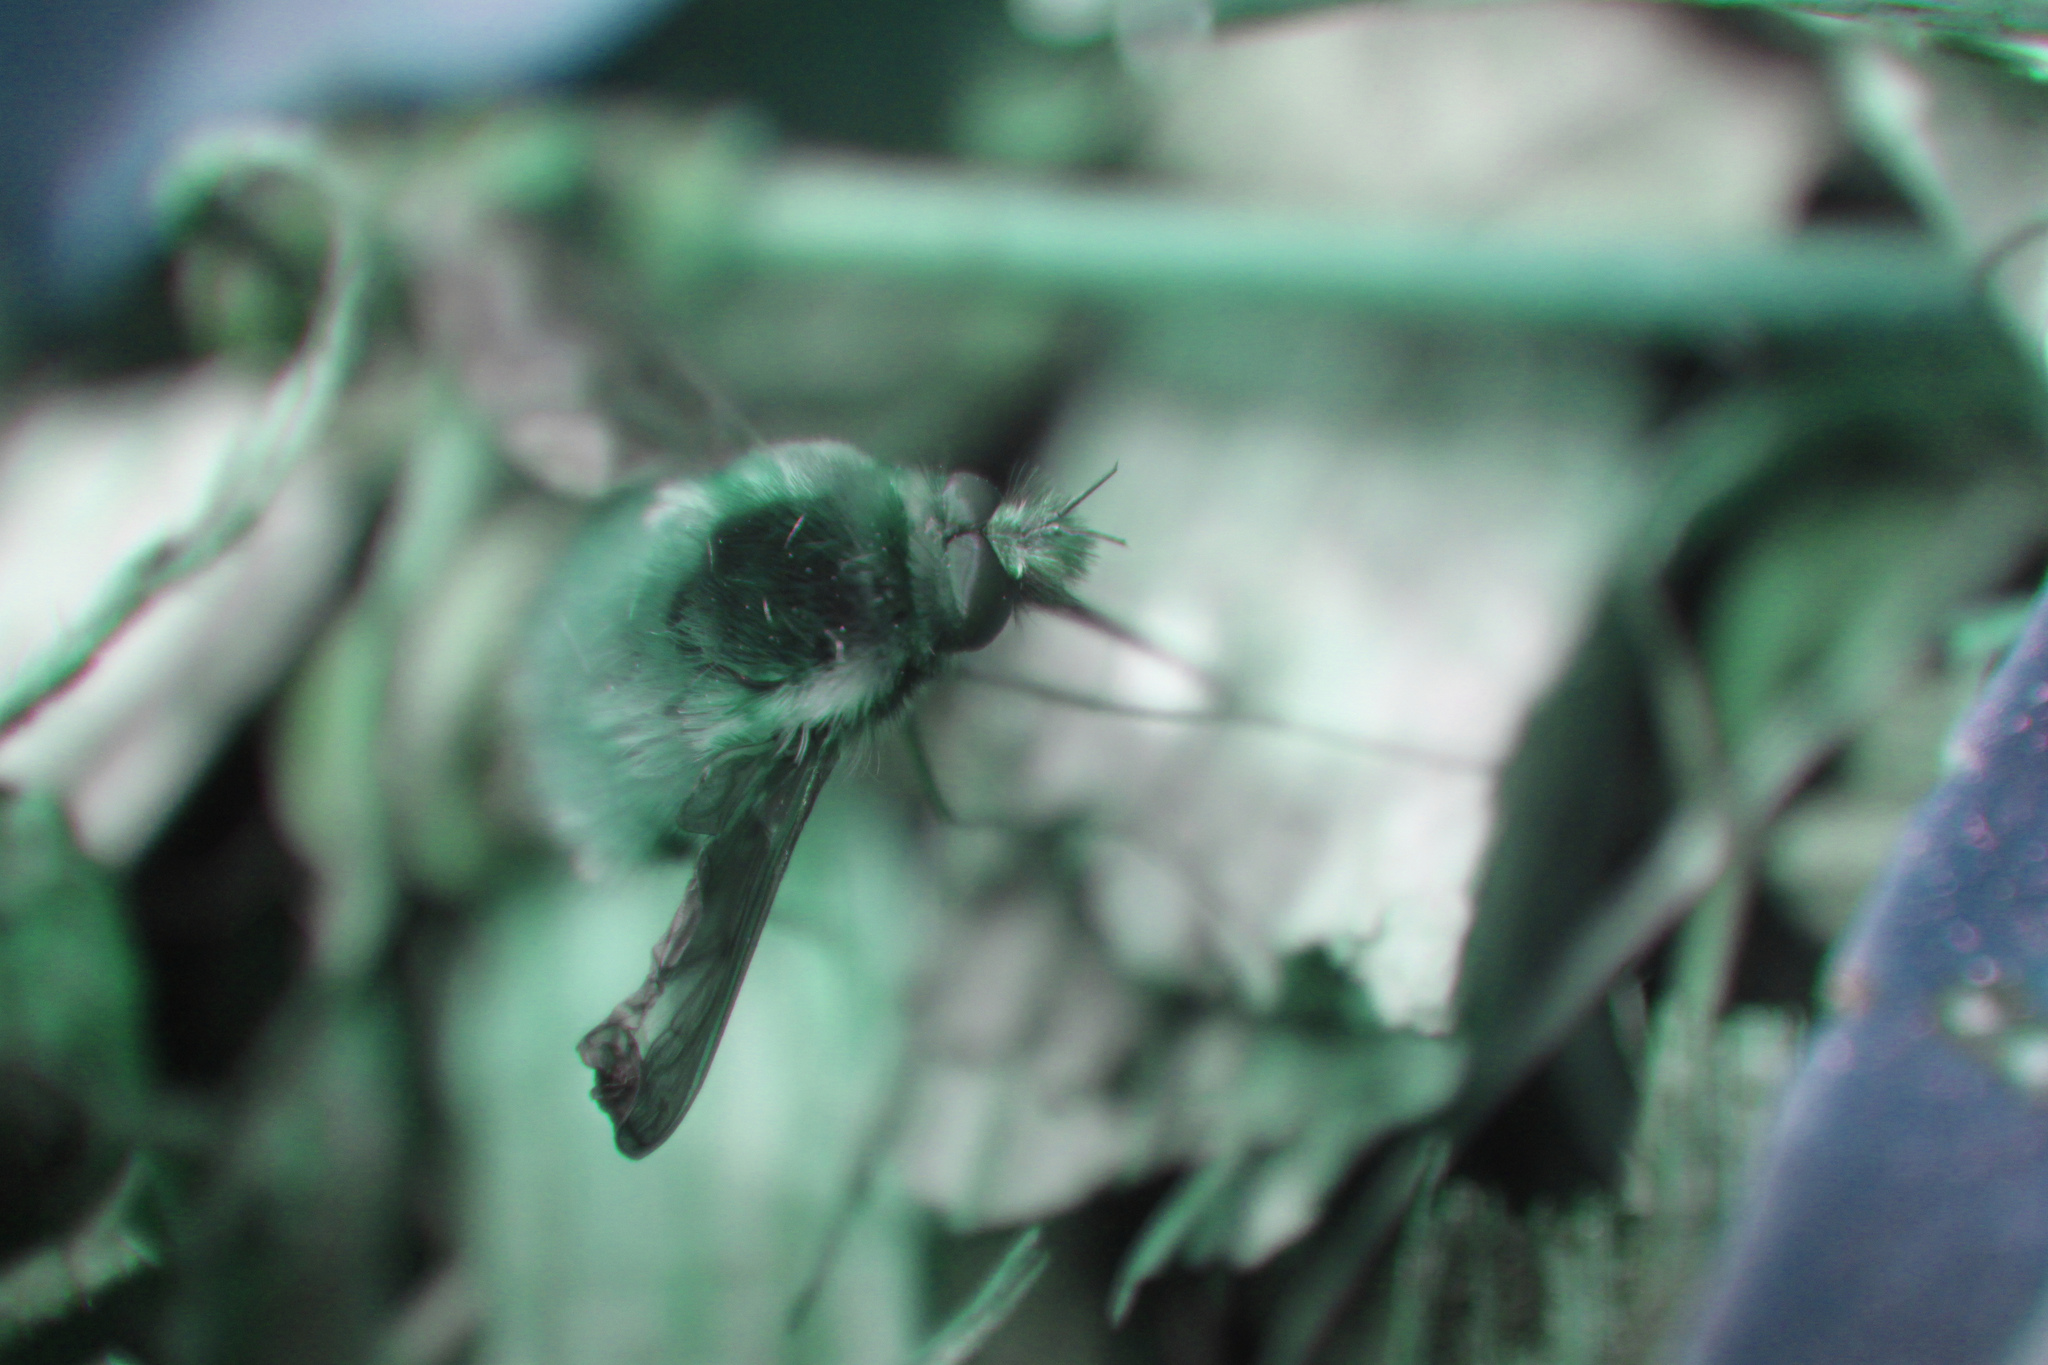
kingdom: Animalia
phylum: Arthropoda
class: Insecta
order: Diptera
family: Bombyliidae
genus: Bombylius
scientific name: Bombylius major
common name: Bee fly
